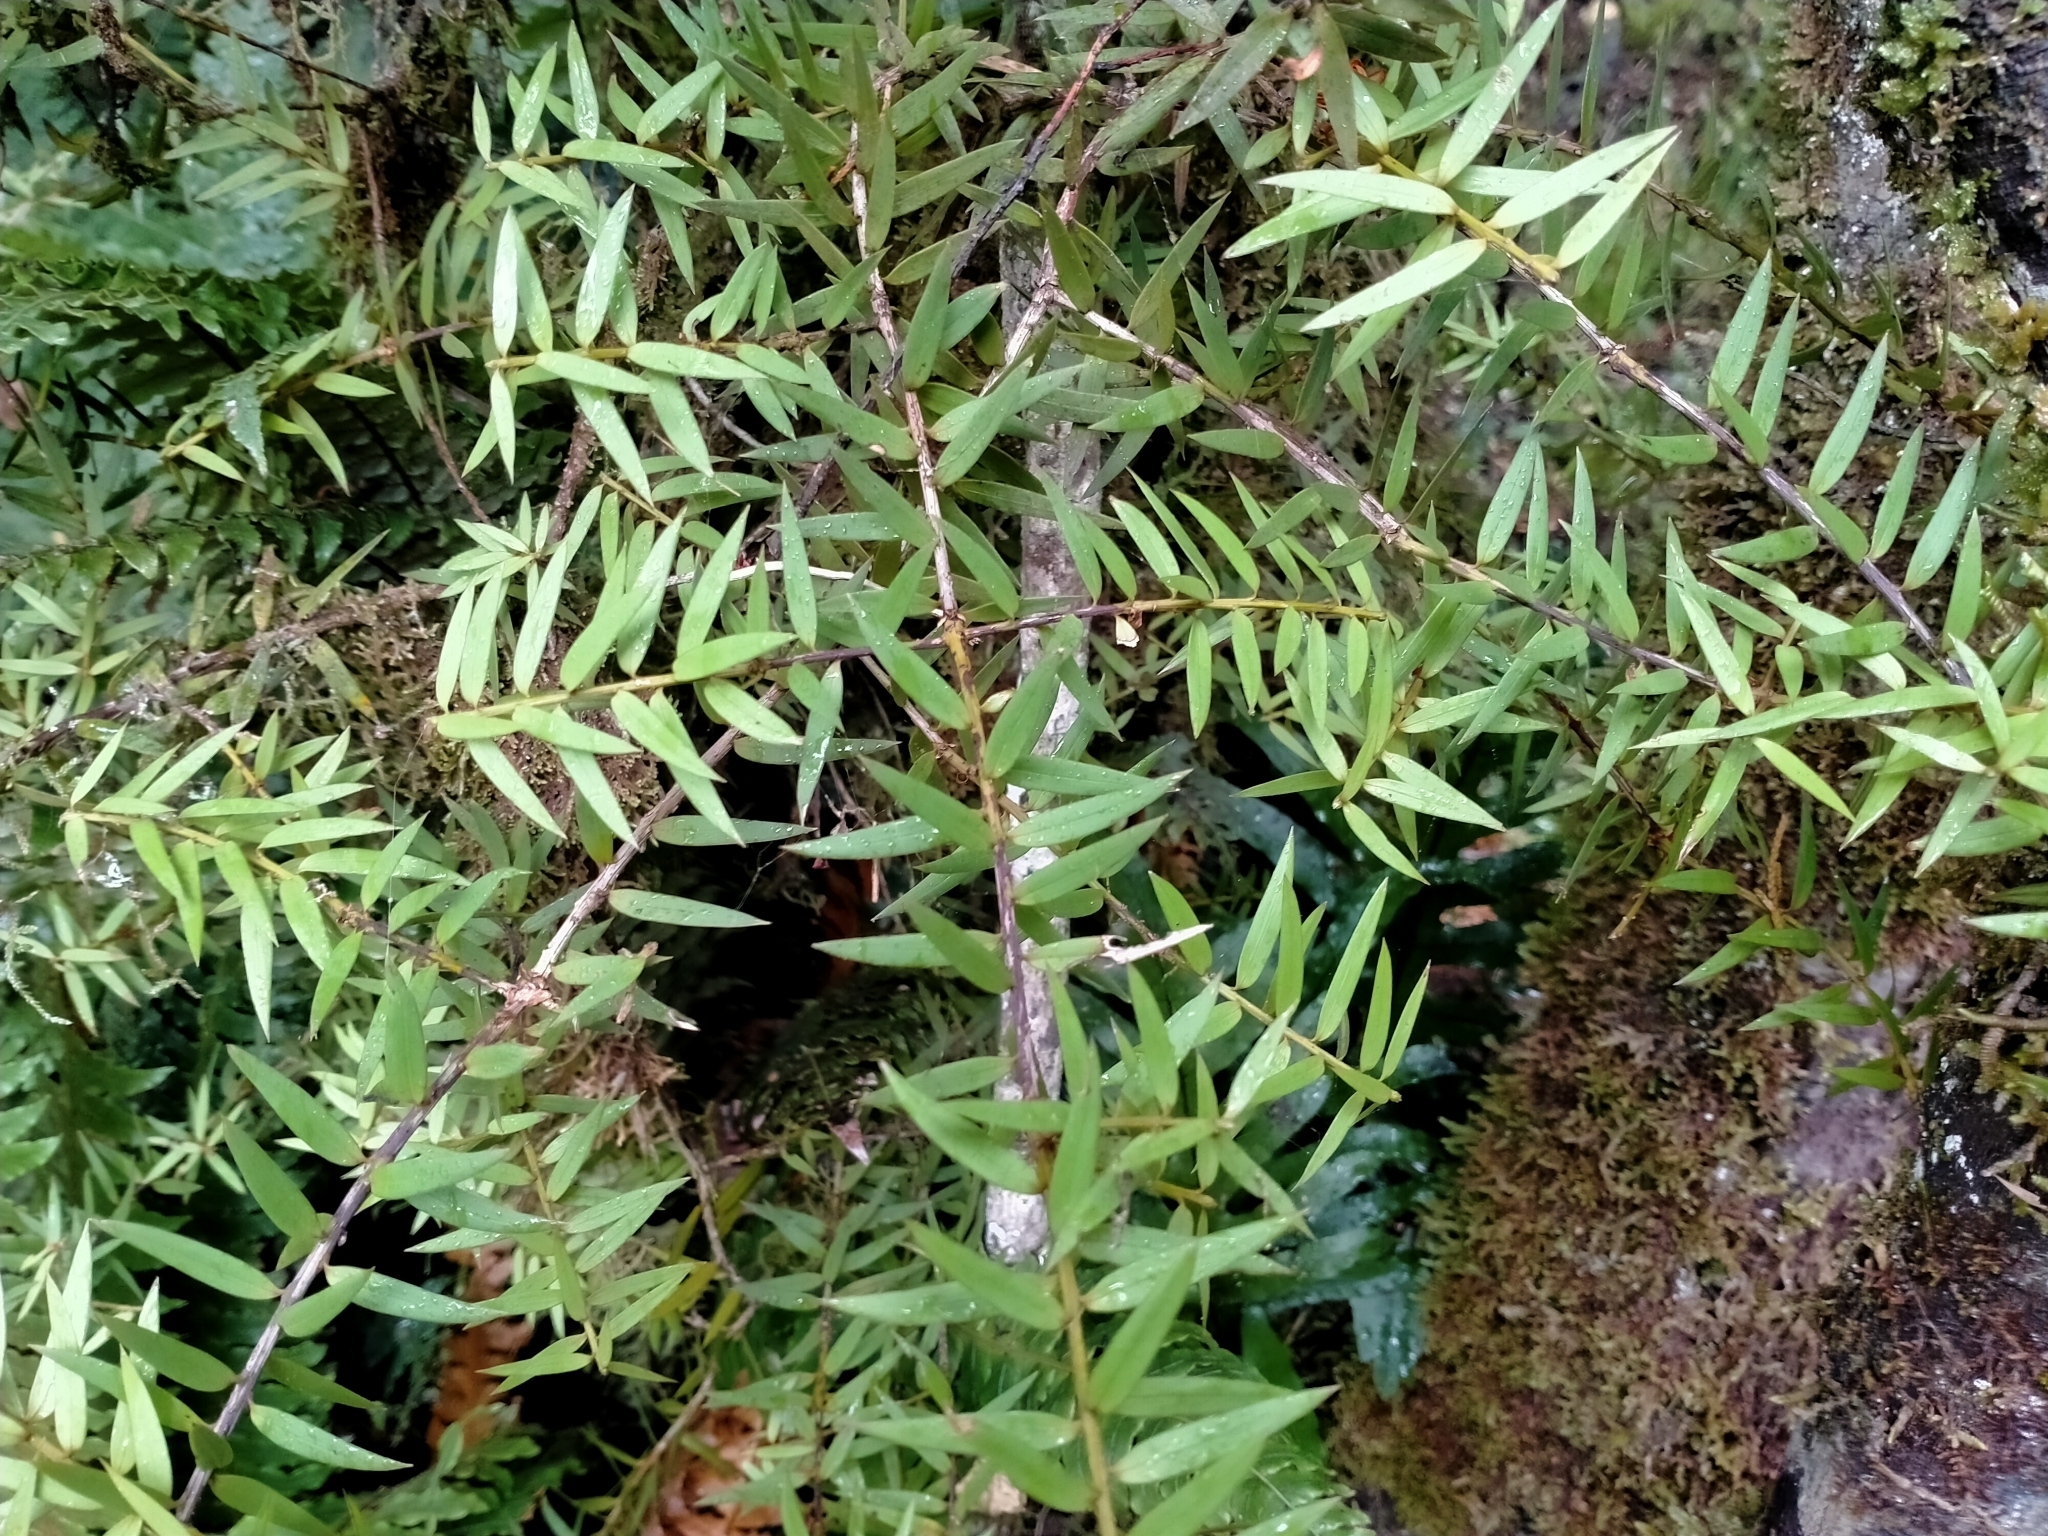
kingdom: Plantae
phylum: Tracheophyta
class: Pinopsida
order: Pinales
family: Podocarpaceae
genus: Podocarpus
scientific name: Podocarpus laetus
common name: Hall's totara
